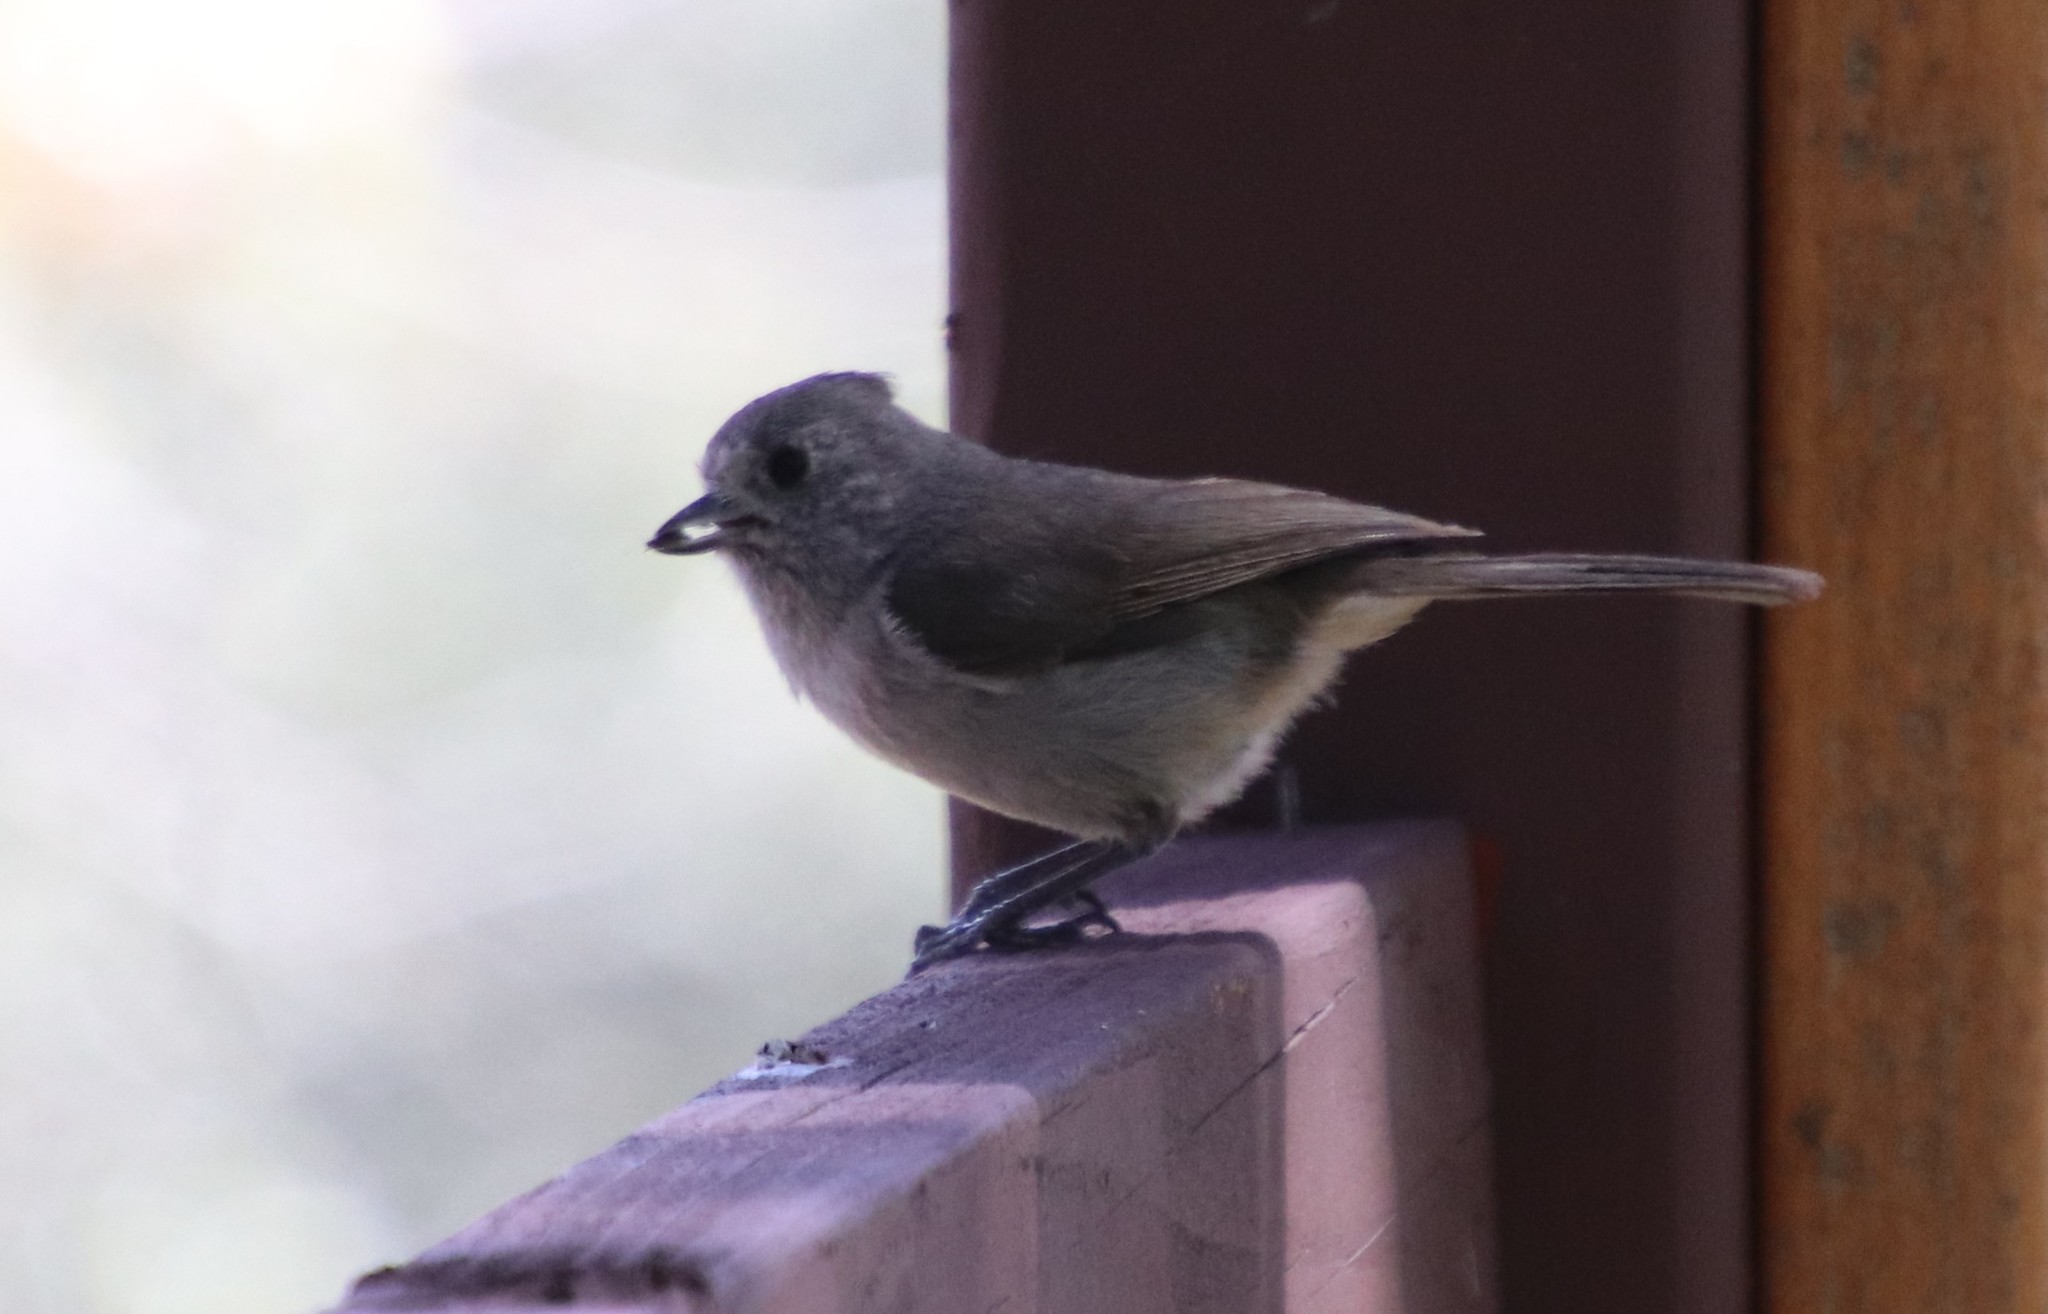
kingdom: Animalia
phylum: Chordata
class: Aves
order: Passeriformes
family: Paridae
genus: Baeolophus
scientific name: Baeolophus inornatus
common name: Oak titmouse
